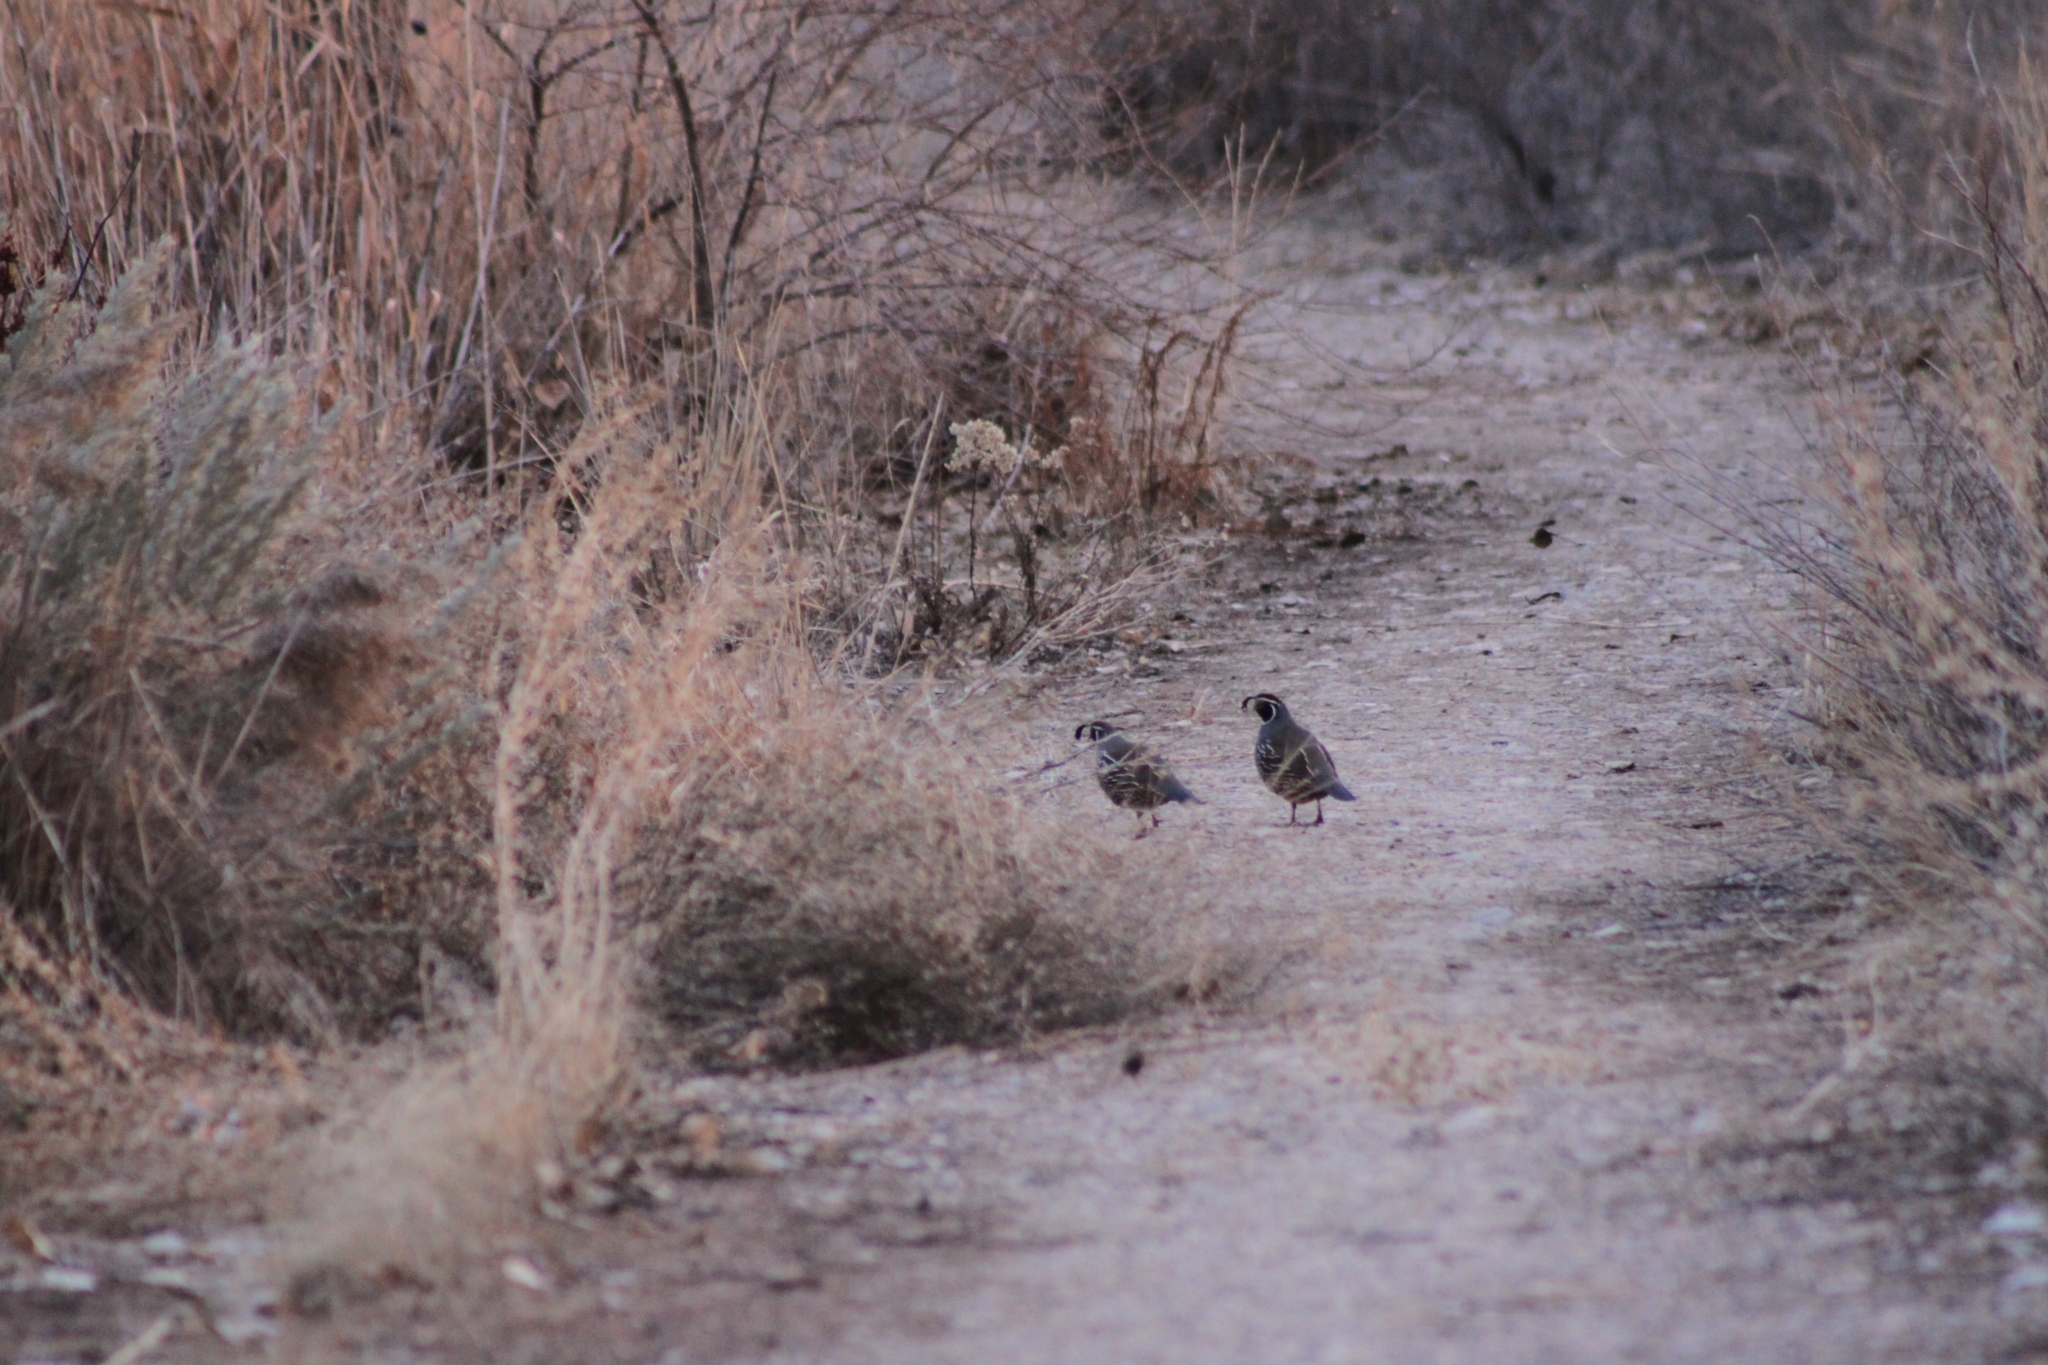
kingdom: Animalia
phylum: Chordata
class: Aves
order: Galliformes
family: Odontophoridae
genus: Callipepla
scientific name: Callipepla californica
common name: California quail
